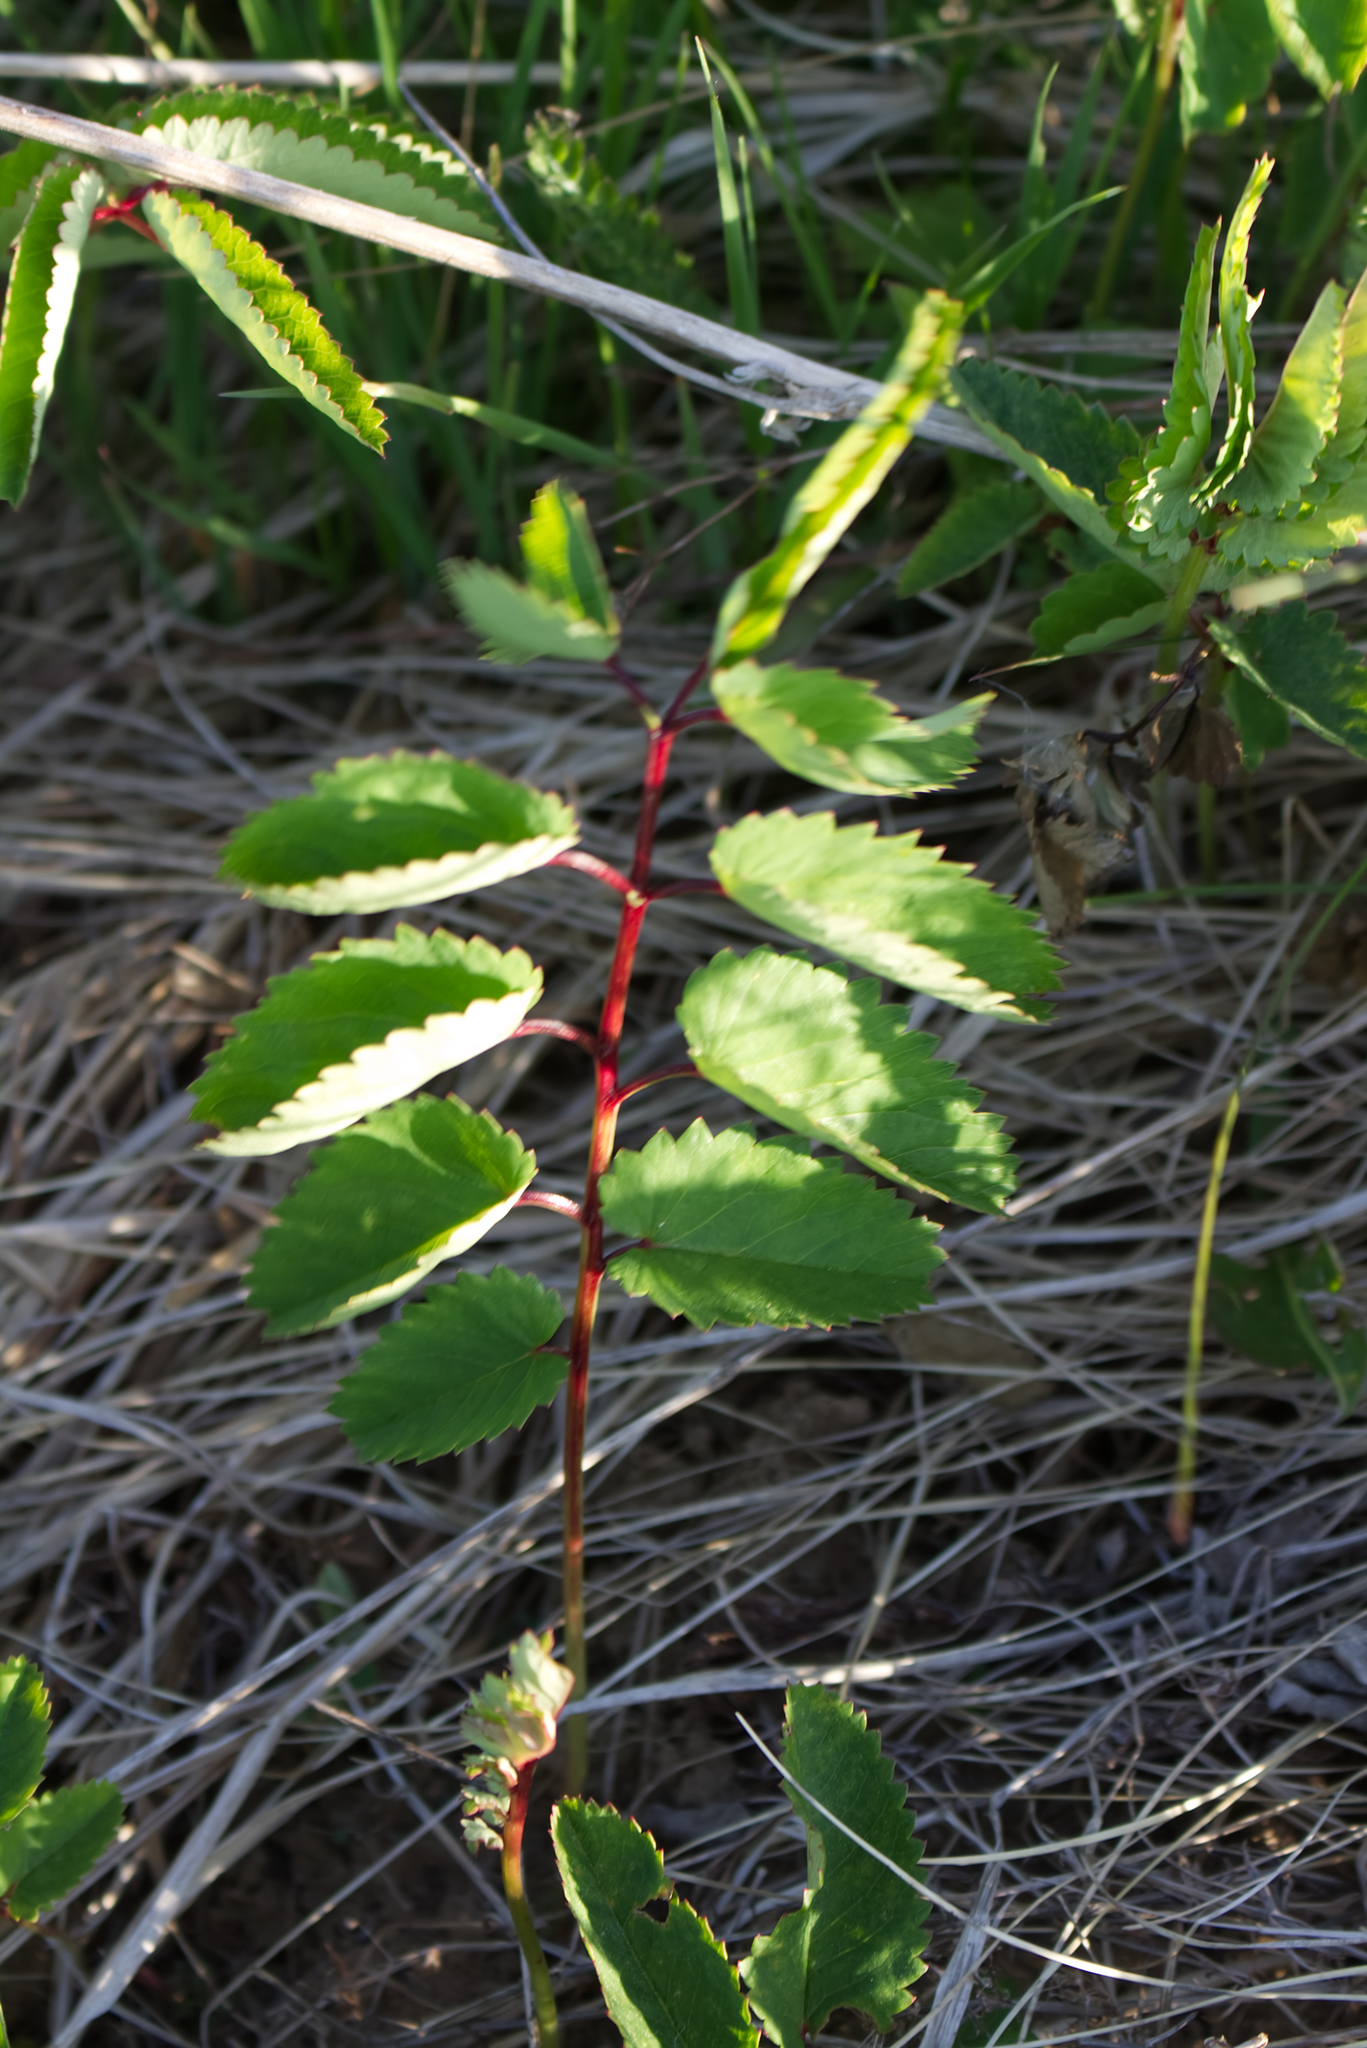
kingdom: Plantae
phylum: Tracheophyta
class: Magnoliopsida
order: Rosales
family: Rosaceae
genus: Sanguisorba
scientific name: Sanguisorba officinalis
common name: Great burnet
